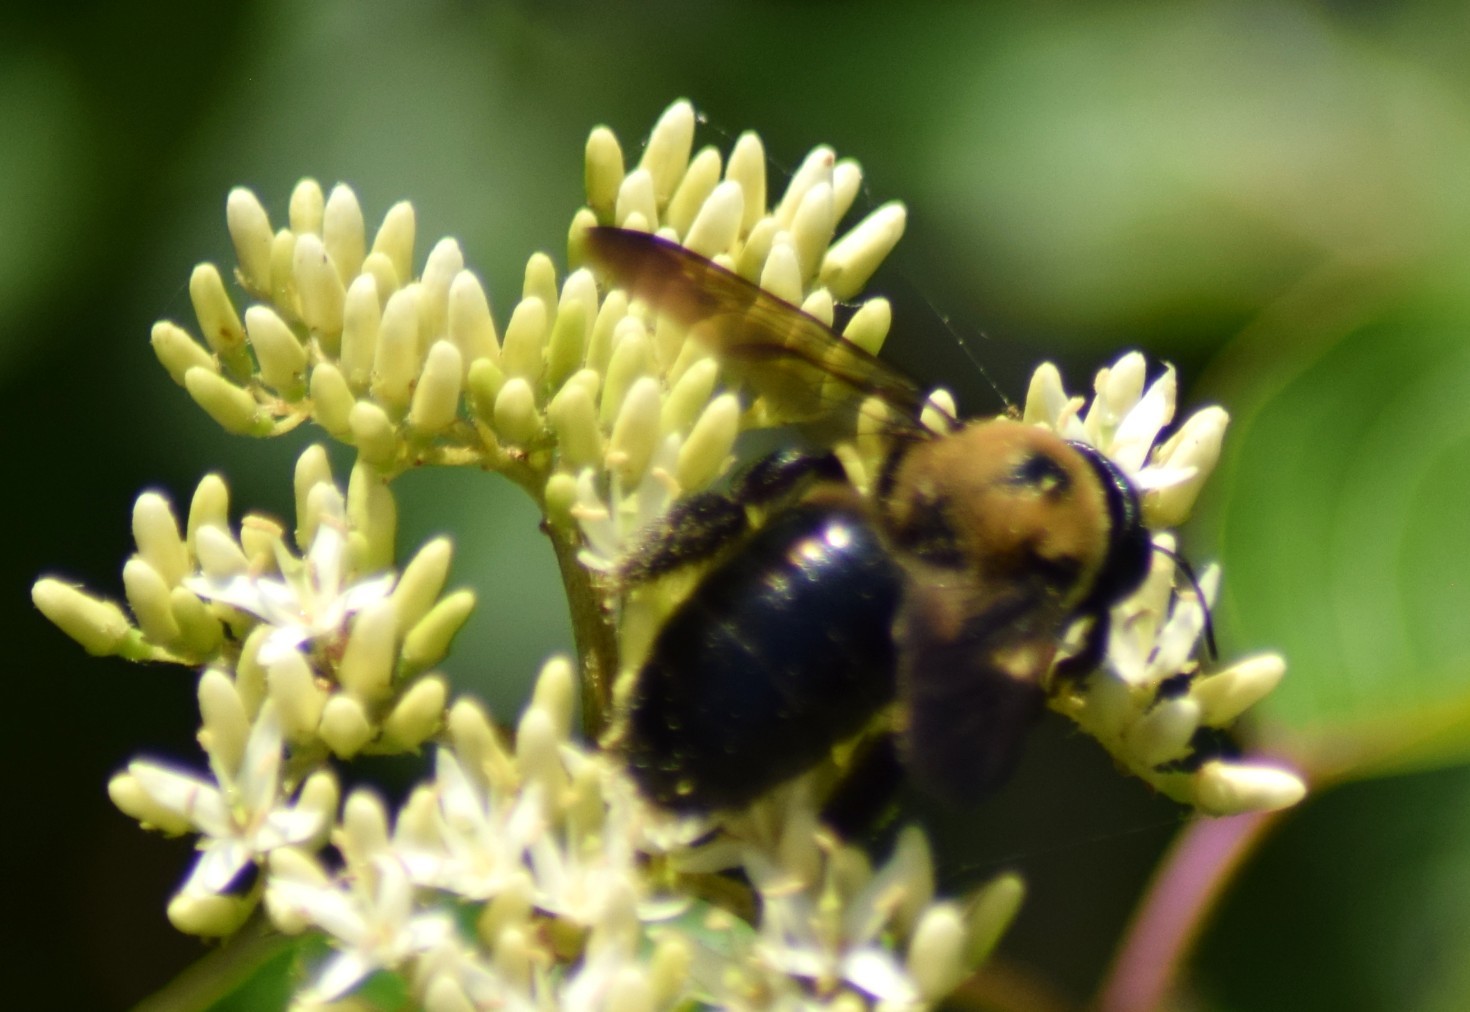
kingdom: Animalia
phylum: Arthropoda
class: Insecta
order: Hymenoptera
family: Apidae
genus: Xylocopa
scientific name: Xylocopa virginica
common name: Carpenter bee
